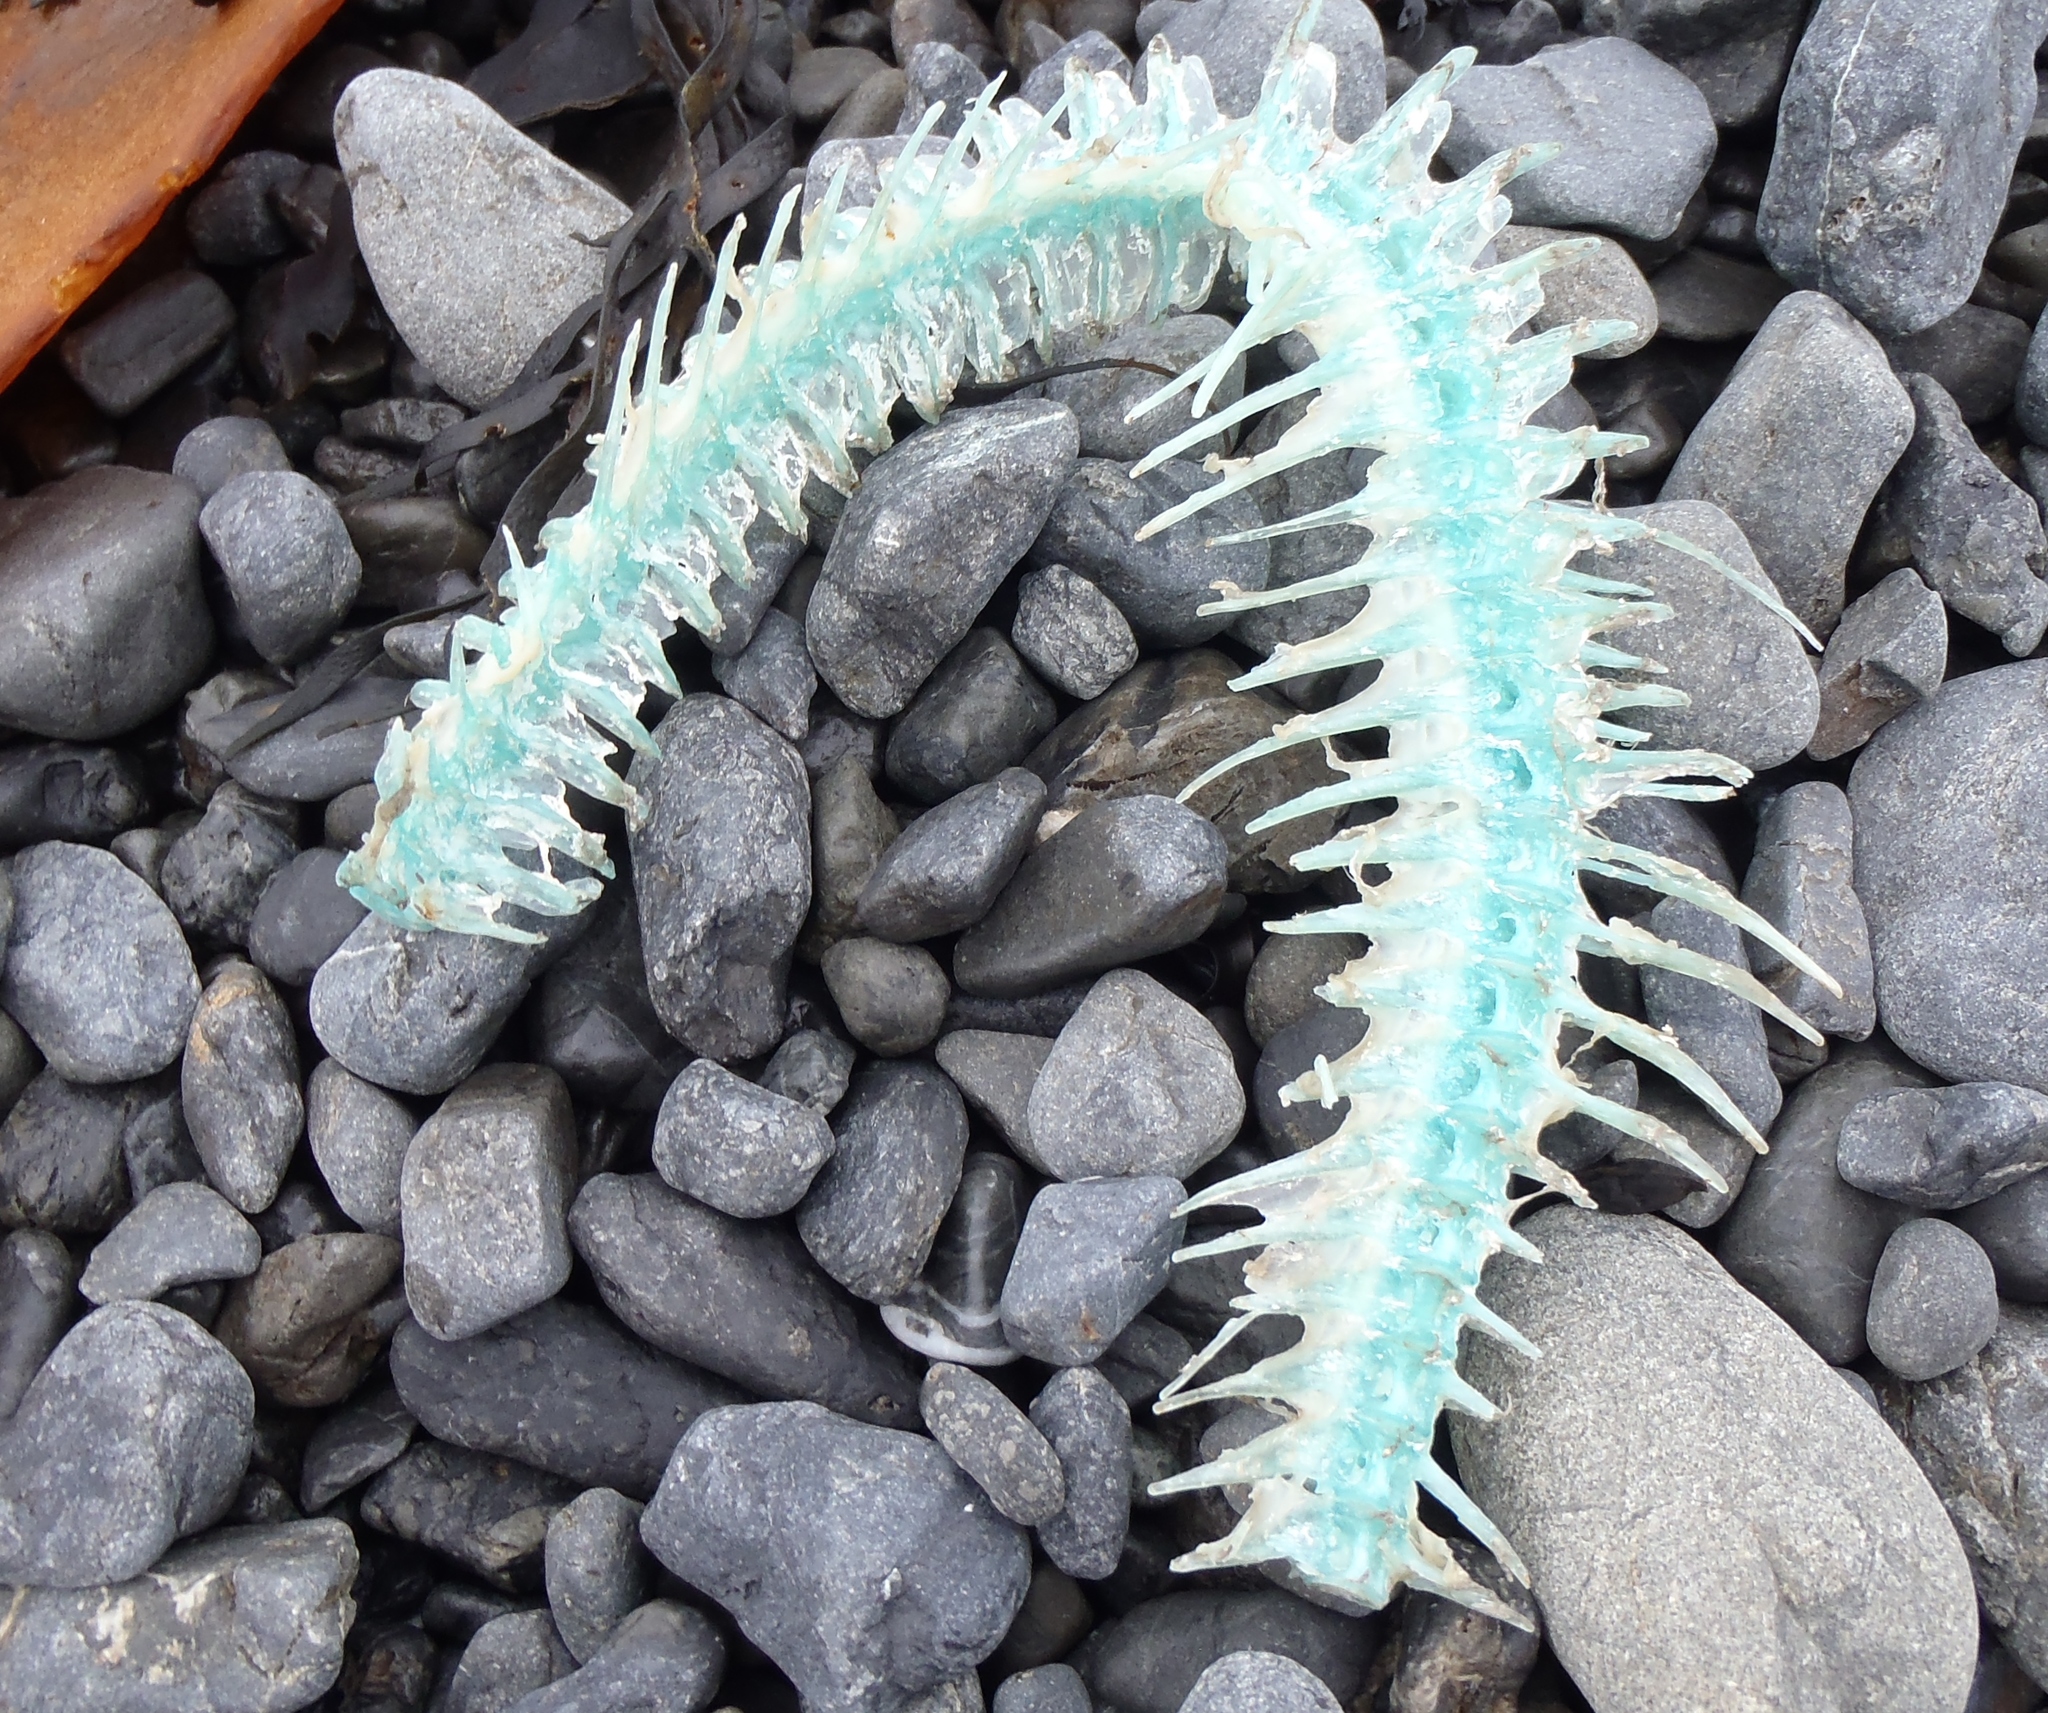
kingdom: Animalia
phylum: Chordata
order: Perciformes
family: Odacidae
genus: Odax
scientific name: Odax pullus
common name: Butterfish
